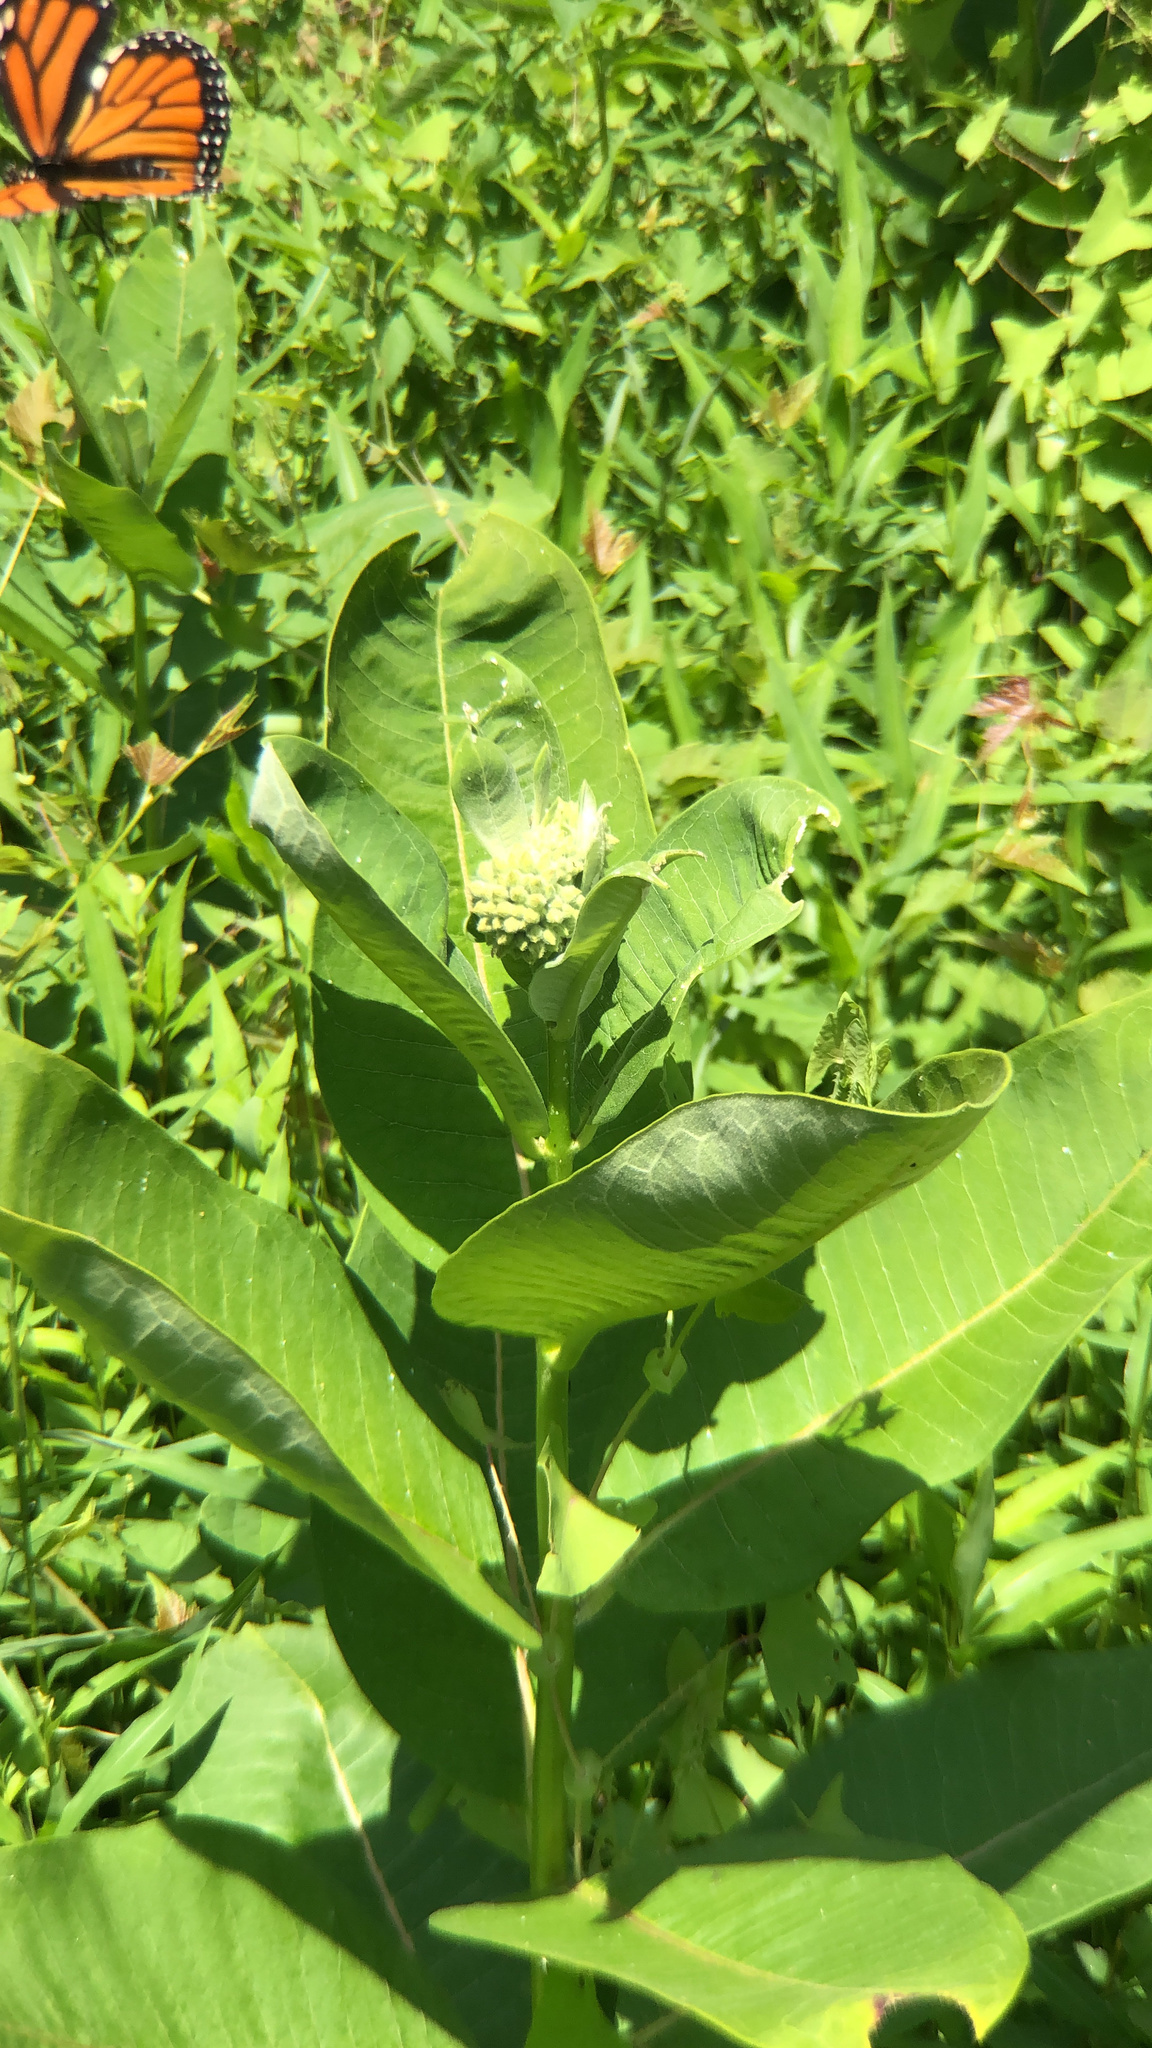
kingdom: Plantae
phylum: Tracheophyta
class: Magnoliopsida
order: Gentianales
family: Apocynaceae
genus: Asclepias
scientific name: Asclepias syriaca
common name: Common milkweed
